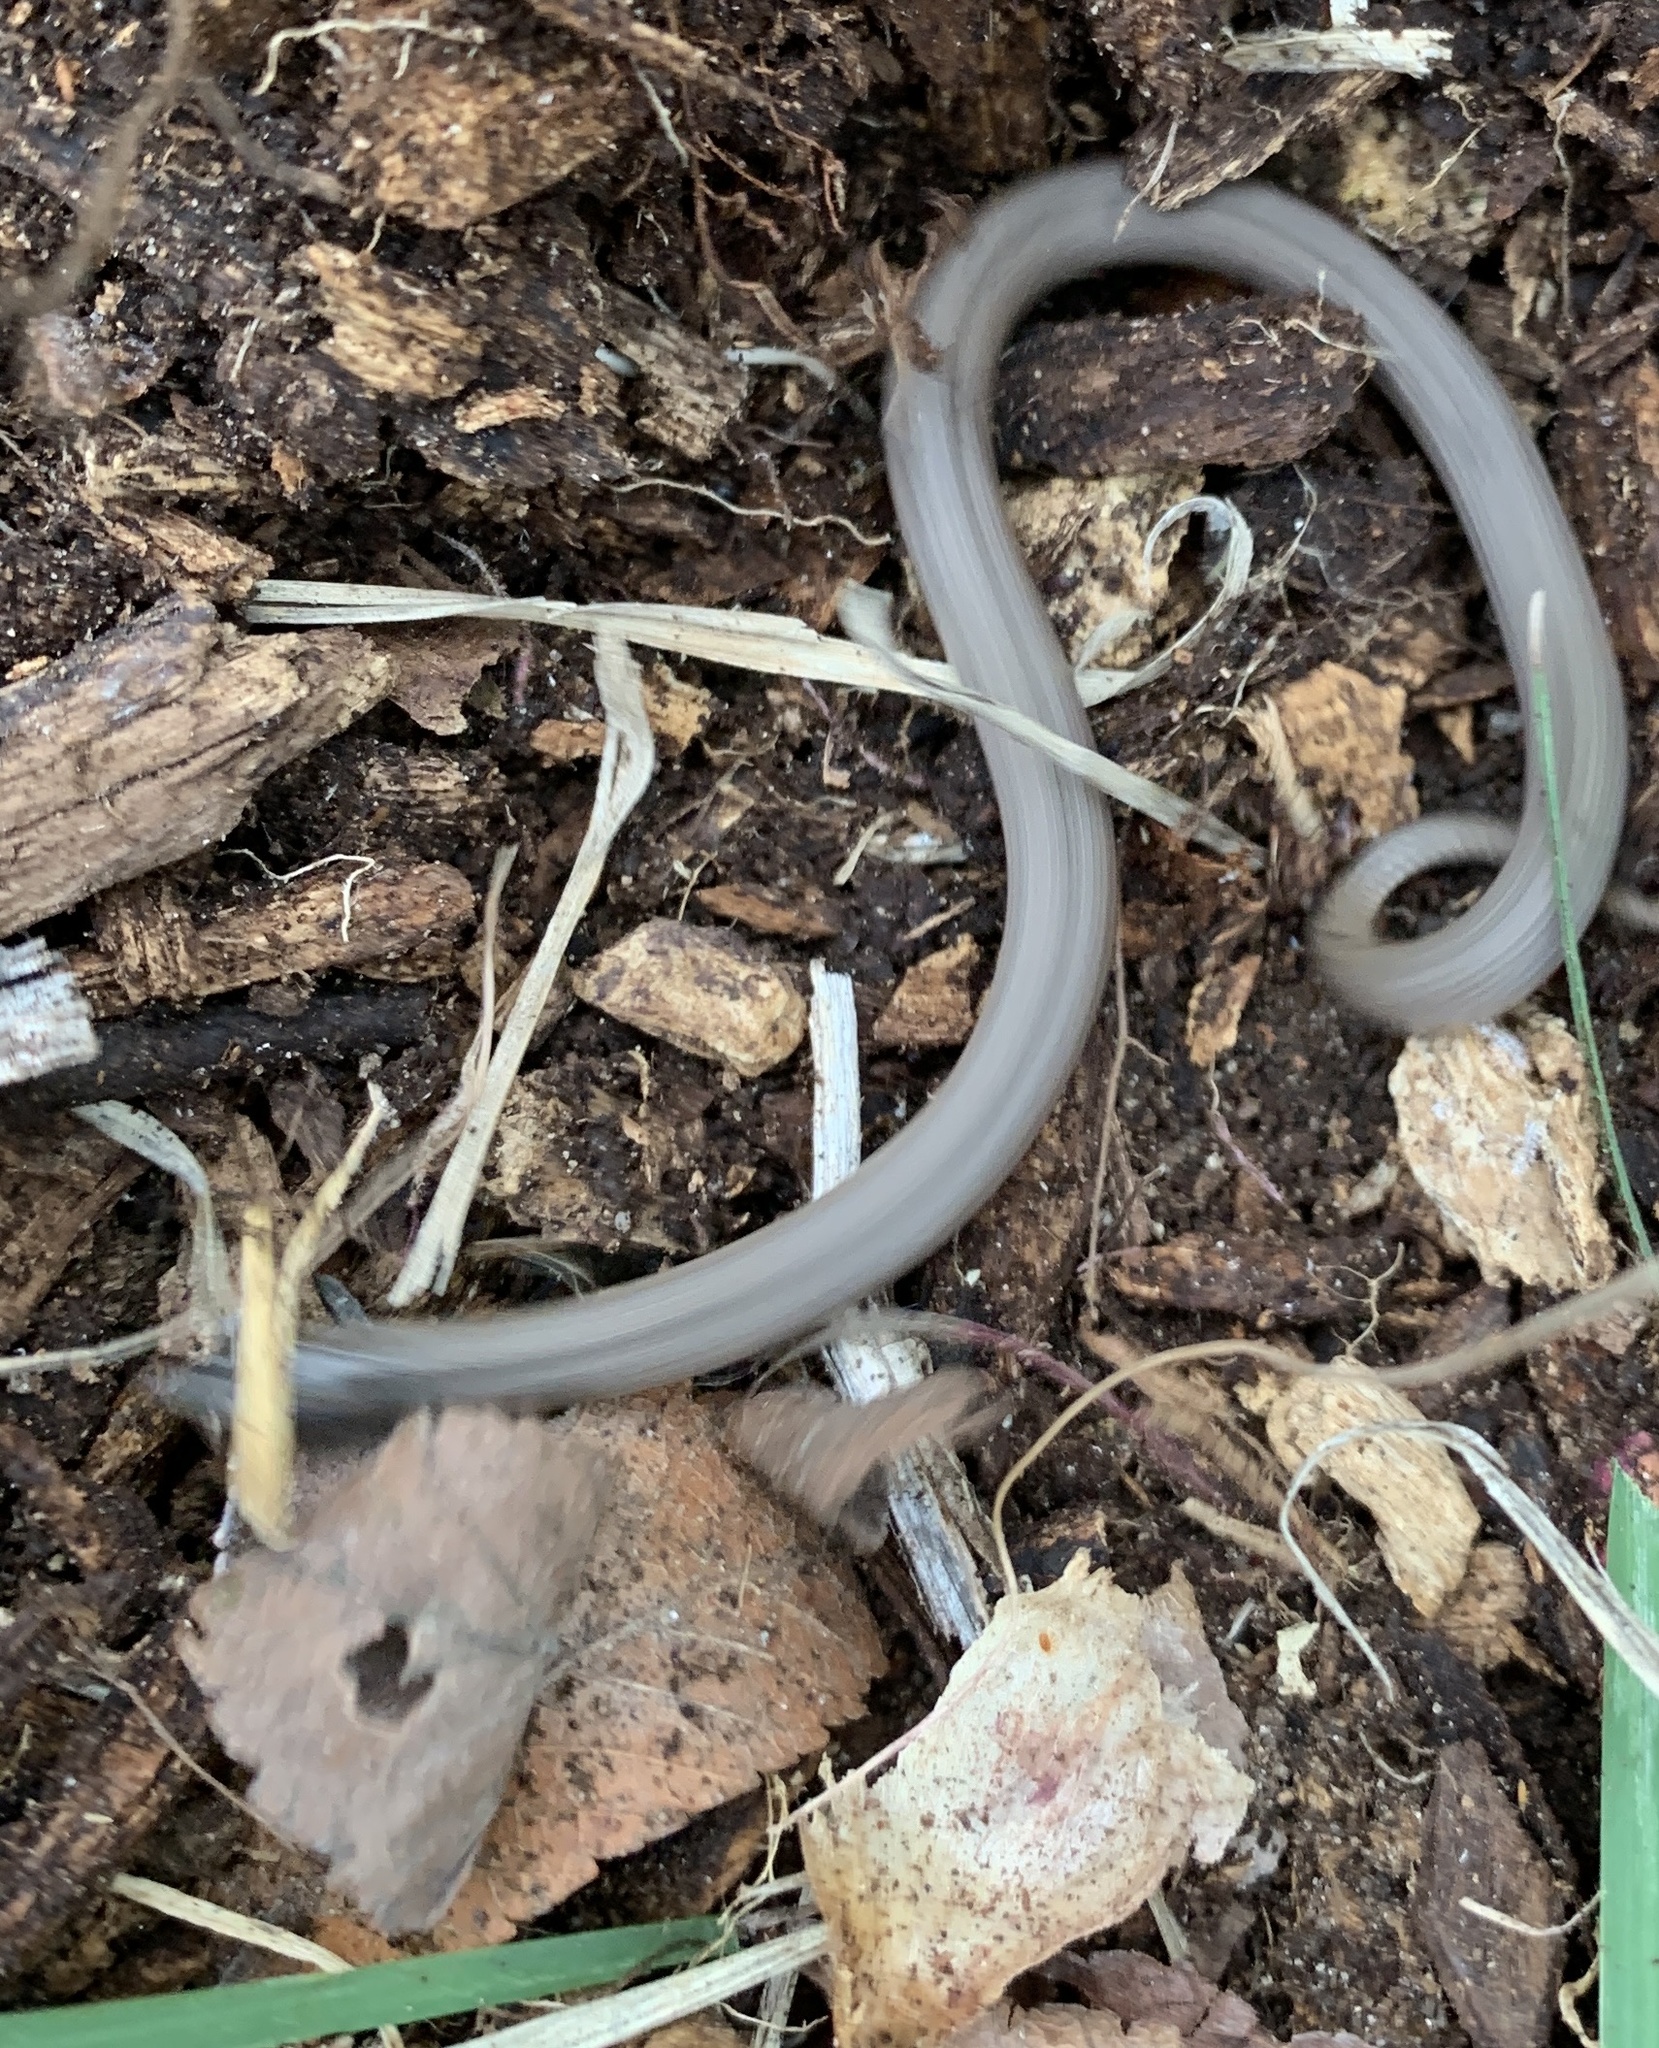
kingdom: Animalia
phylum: Chordata
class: Squamata
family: Colubridae
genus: Haldea
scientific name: Haldea striatula
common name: Rough earth snake
